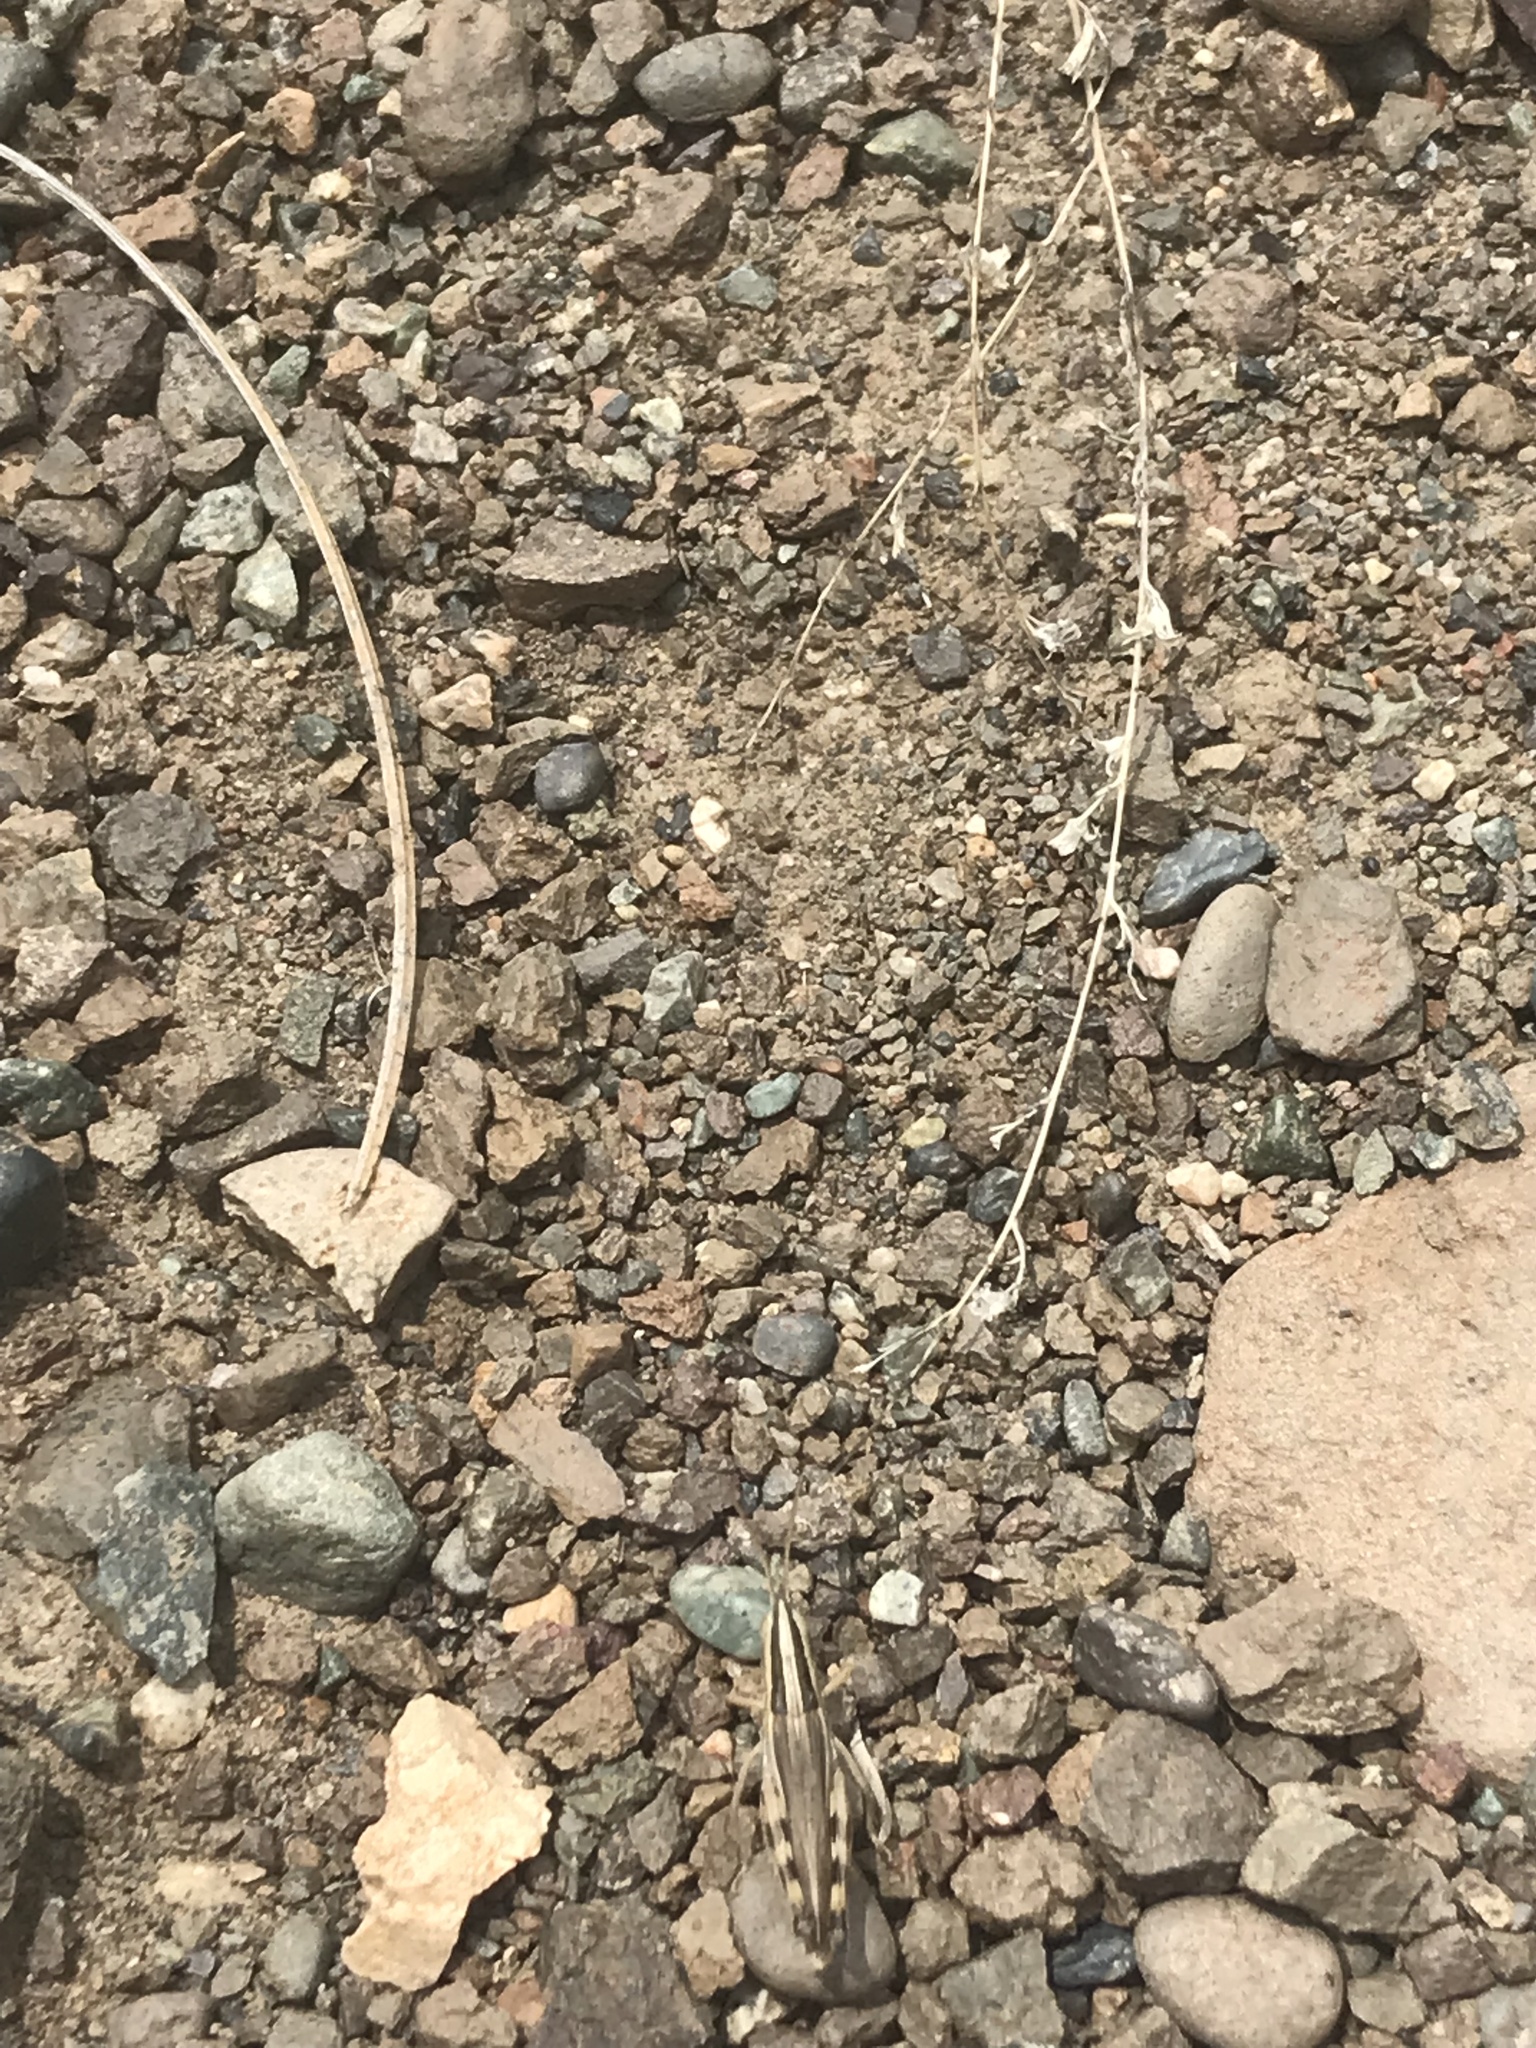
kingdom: Animalia
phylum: Arthropoda
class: Insecta
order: Orthoptera
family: Acrididae
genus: Amphitornus
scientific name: Amphitornus coloradus
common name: Striped grasshopper
